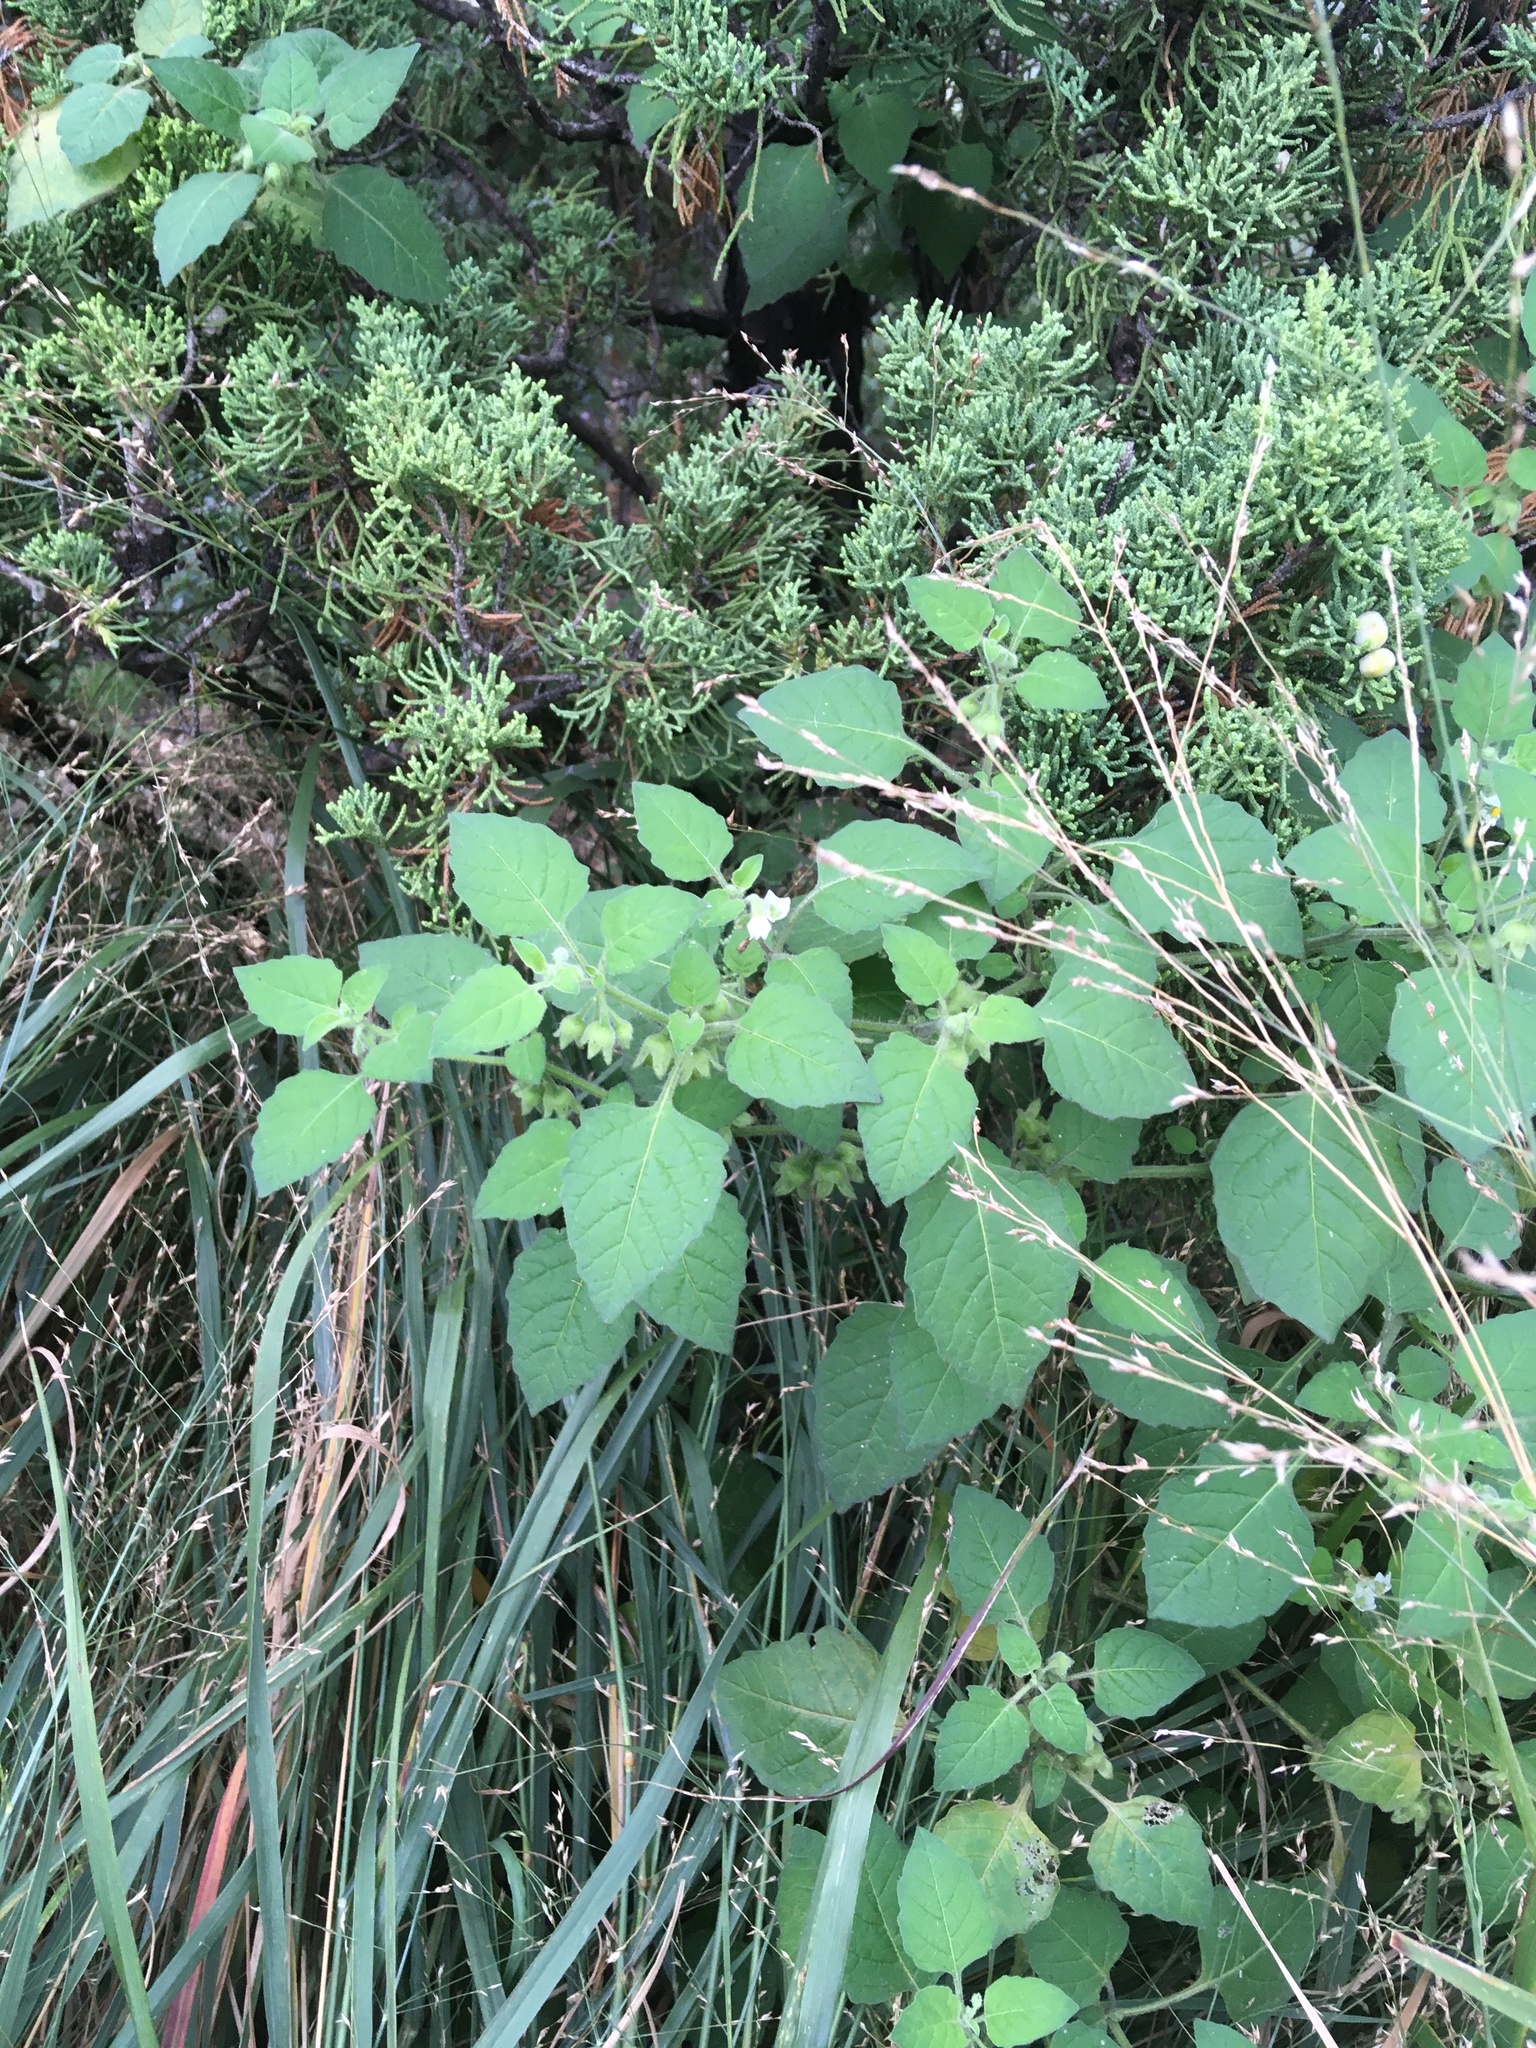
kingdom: Plantae
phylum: Tracheophyta
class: Magnoliopsida
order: Solanales
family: Solanaceae
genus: Solanum
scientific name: Solanum sarrachoides
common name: Leafy-fruited nightshade
